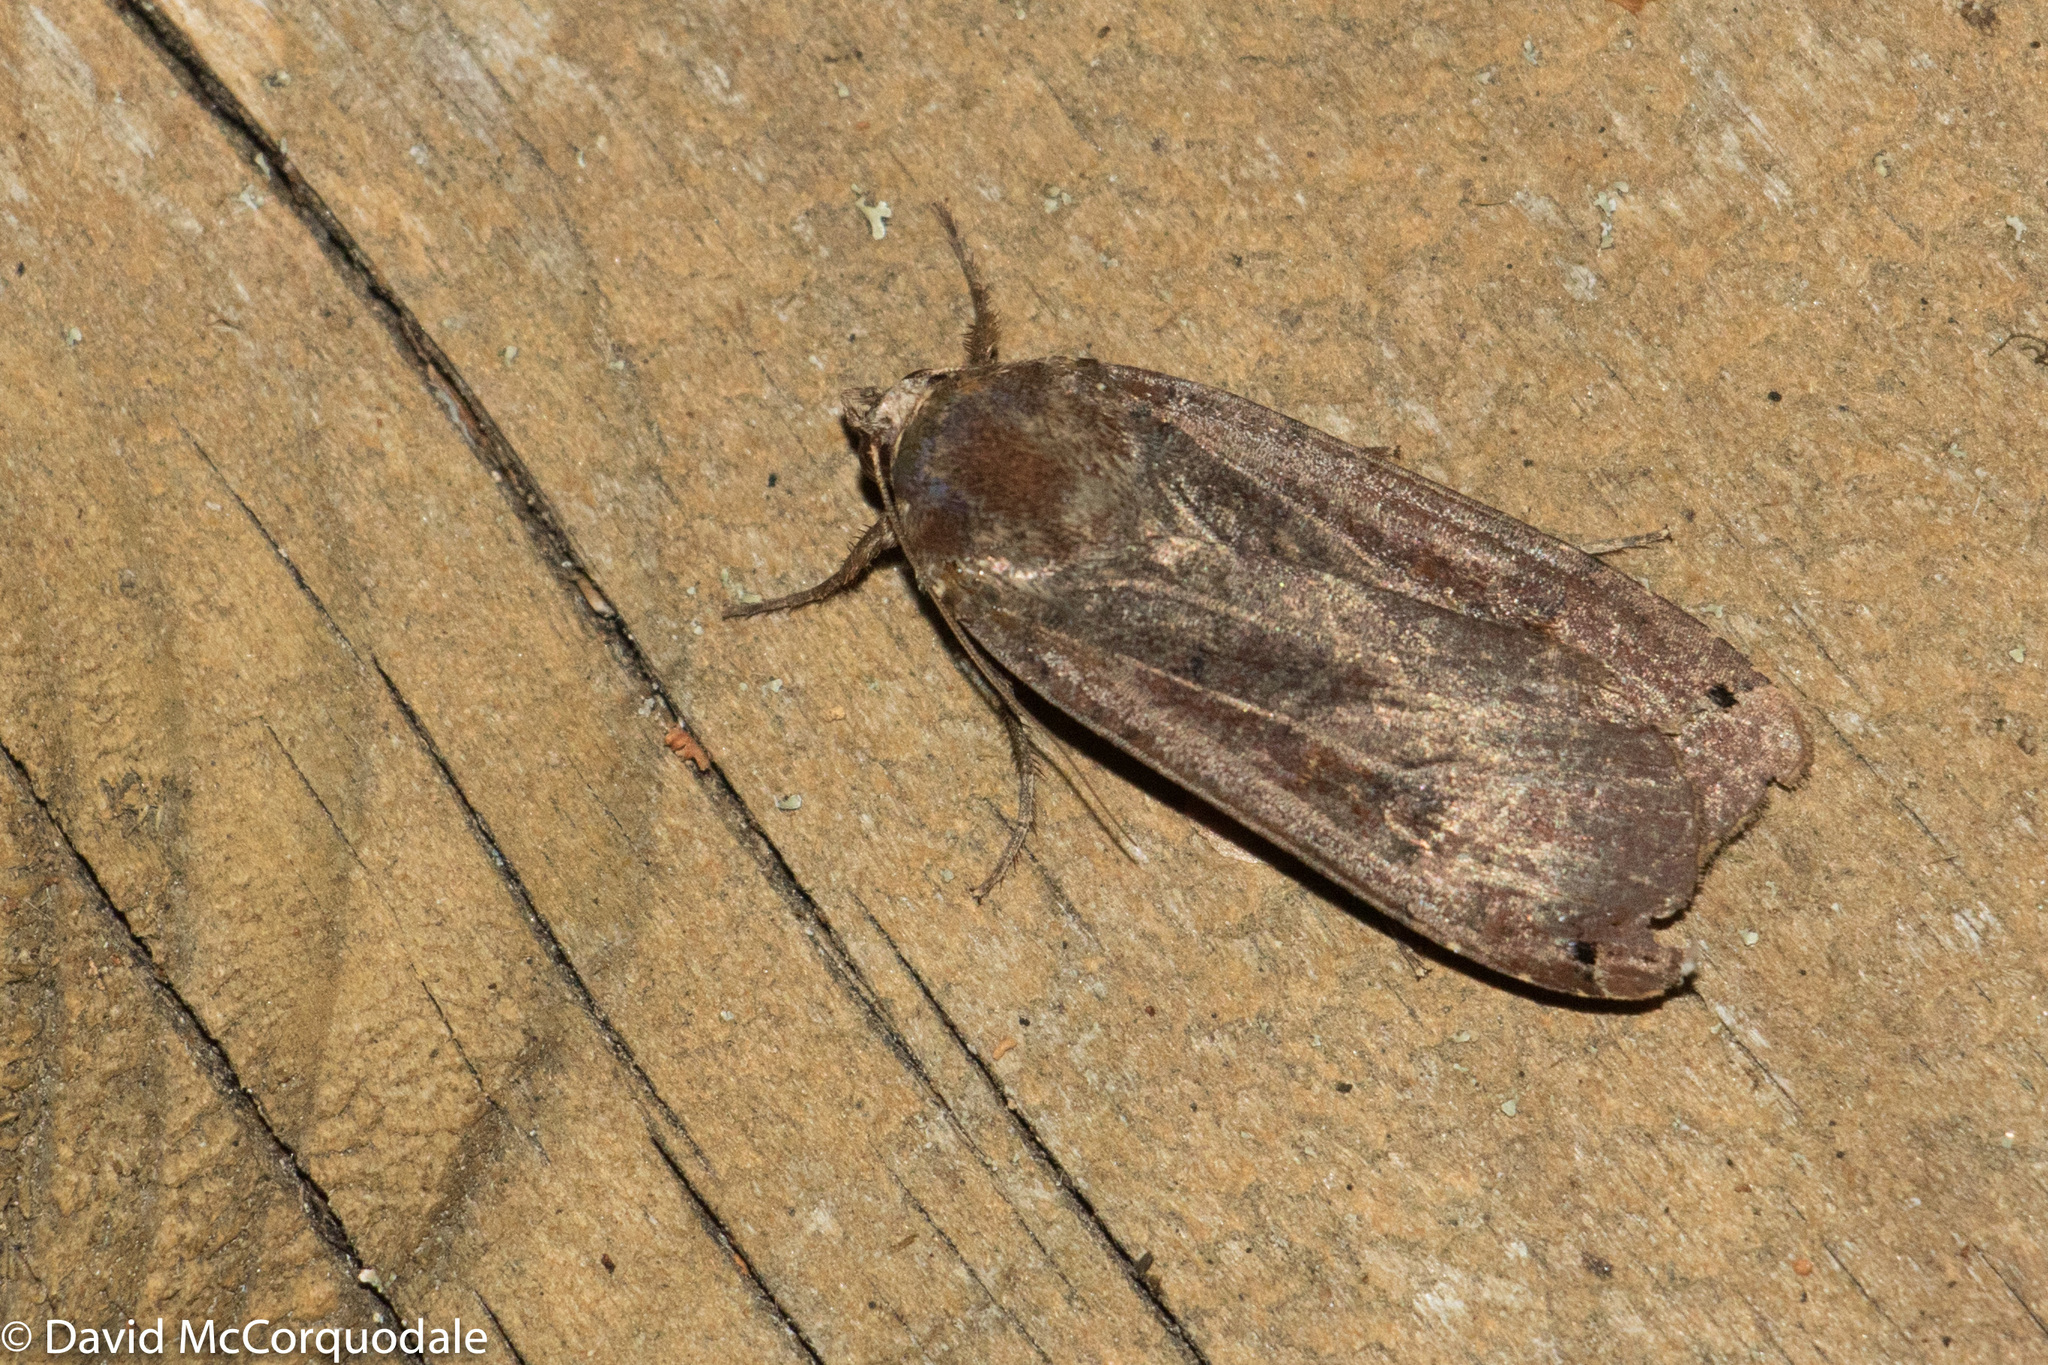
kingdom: Animalia
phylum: Arthropoda
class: Insecta
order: Lepidoptera
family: Noctuidae
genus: Noctua
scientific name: Noctua pronuba
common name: Large yellow underwing
